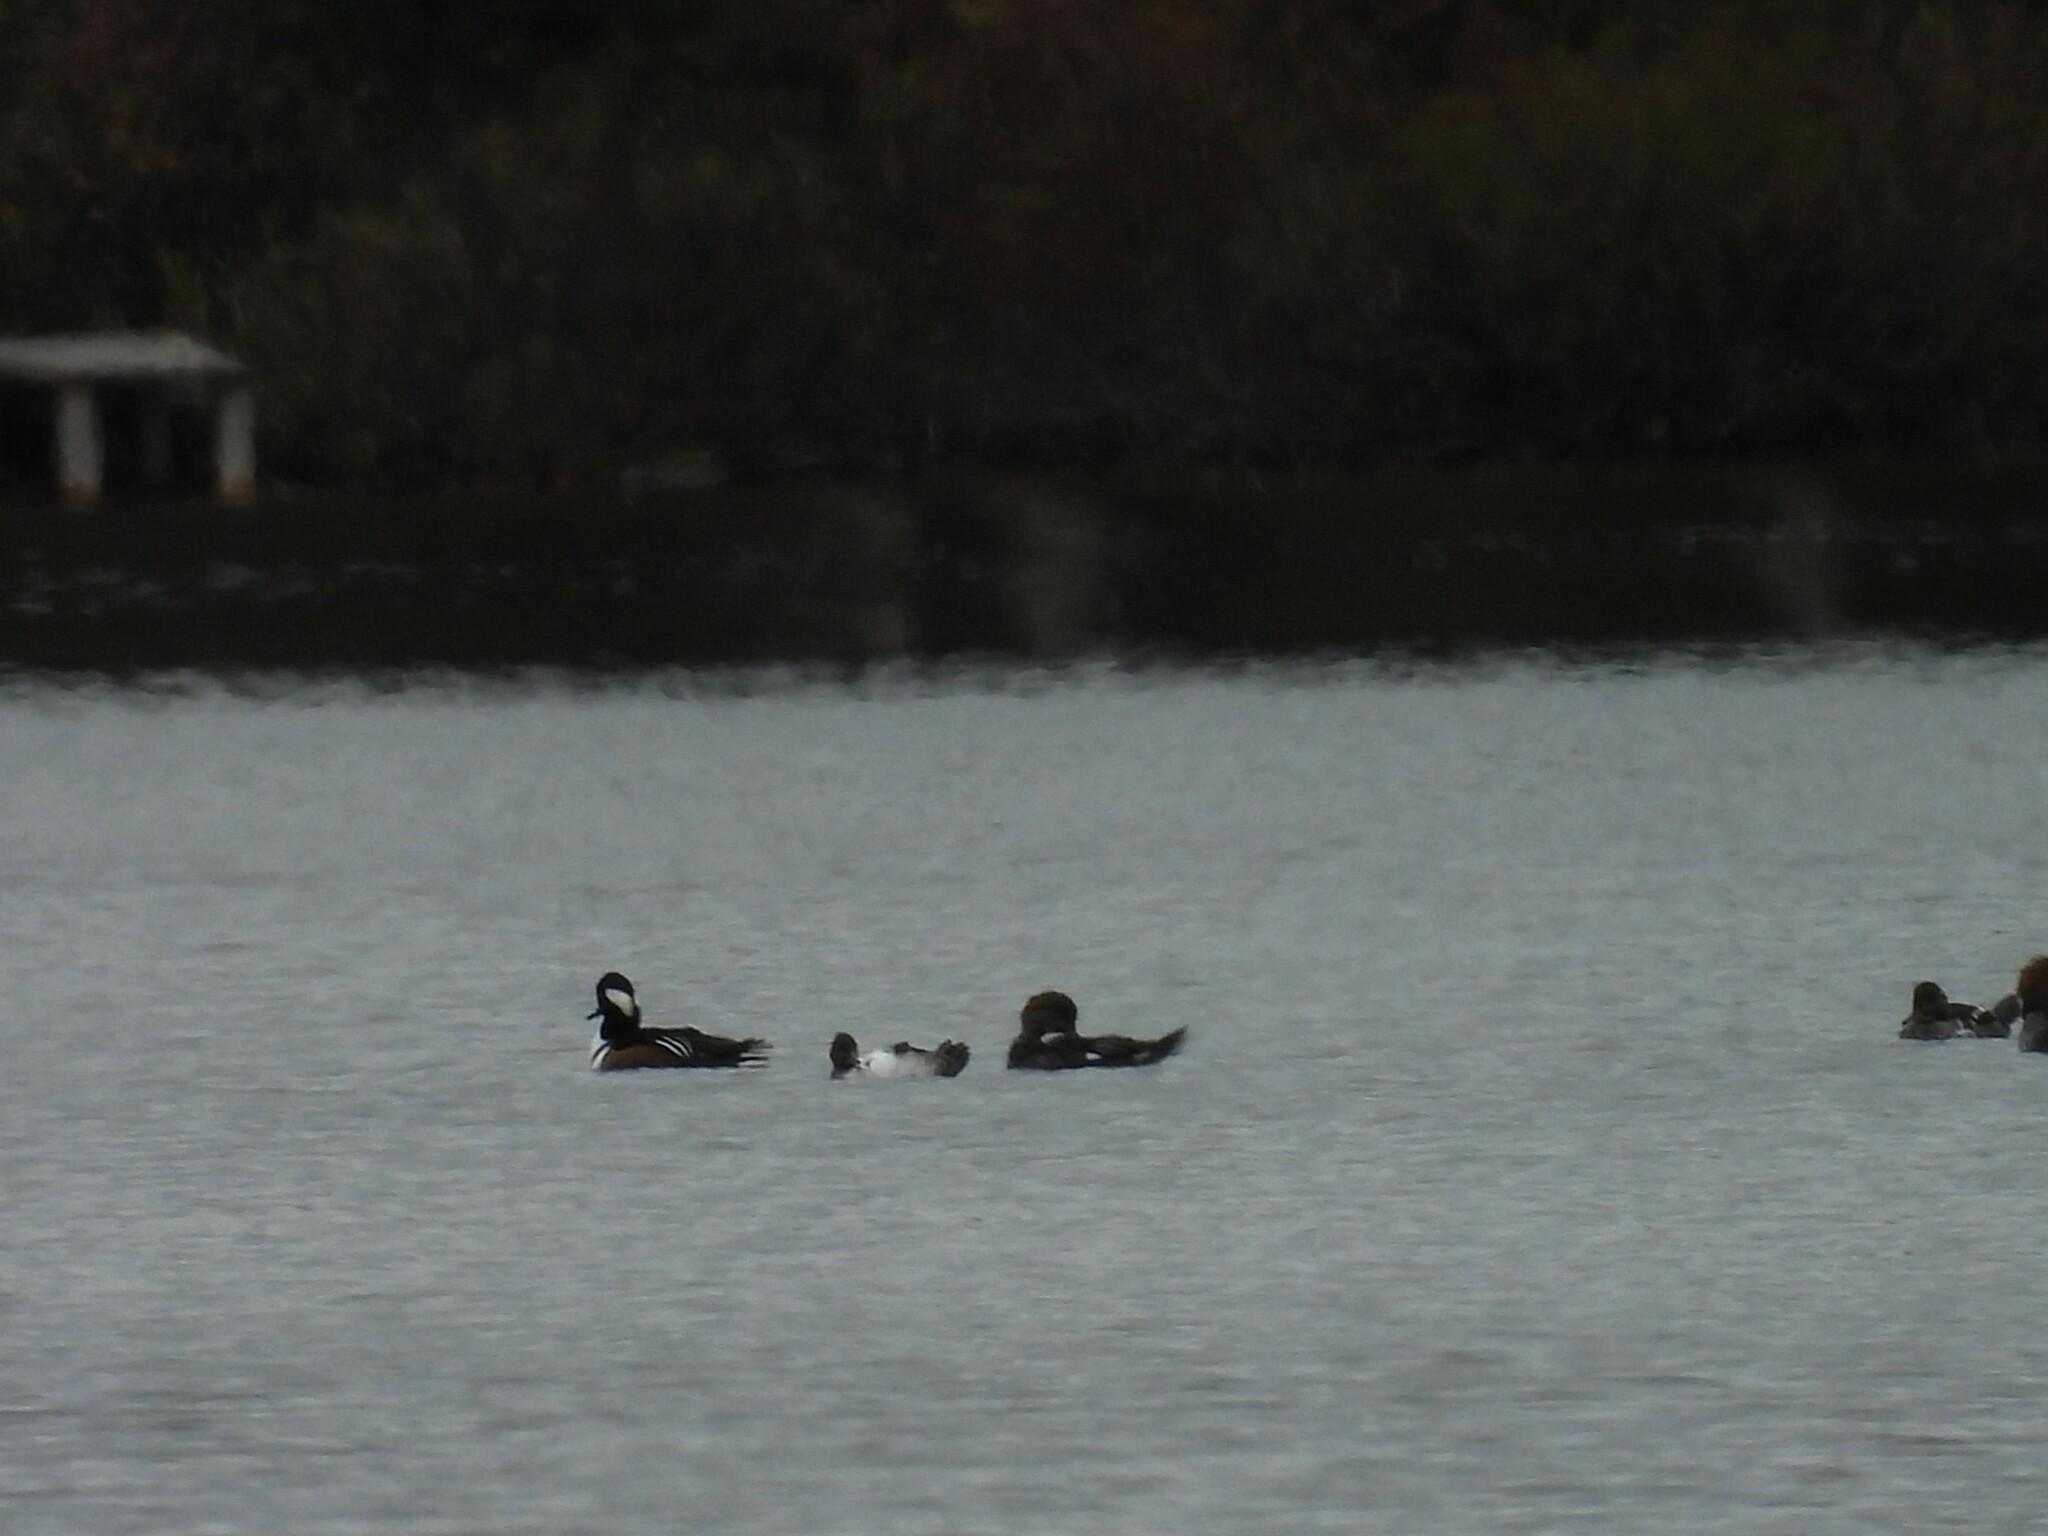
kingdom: Animalia
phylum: Chordata
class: Aves
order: Anseriformes
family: Anatidae
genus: Lophodytes
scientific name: Lophodytes cucullatus
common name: Hooded merganser
